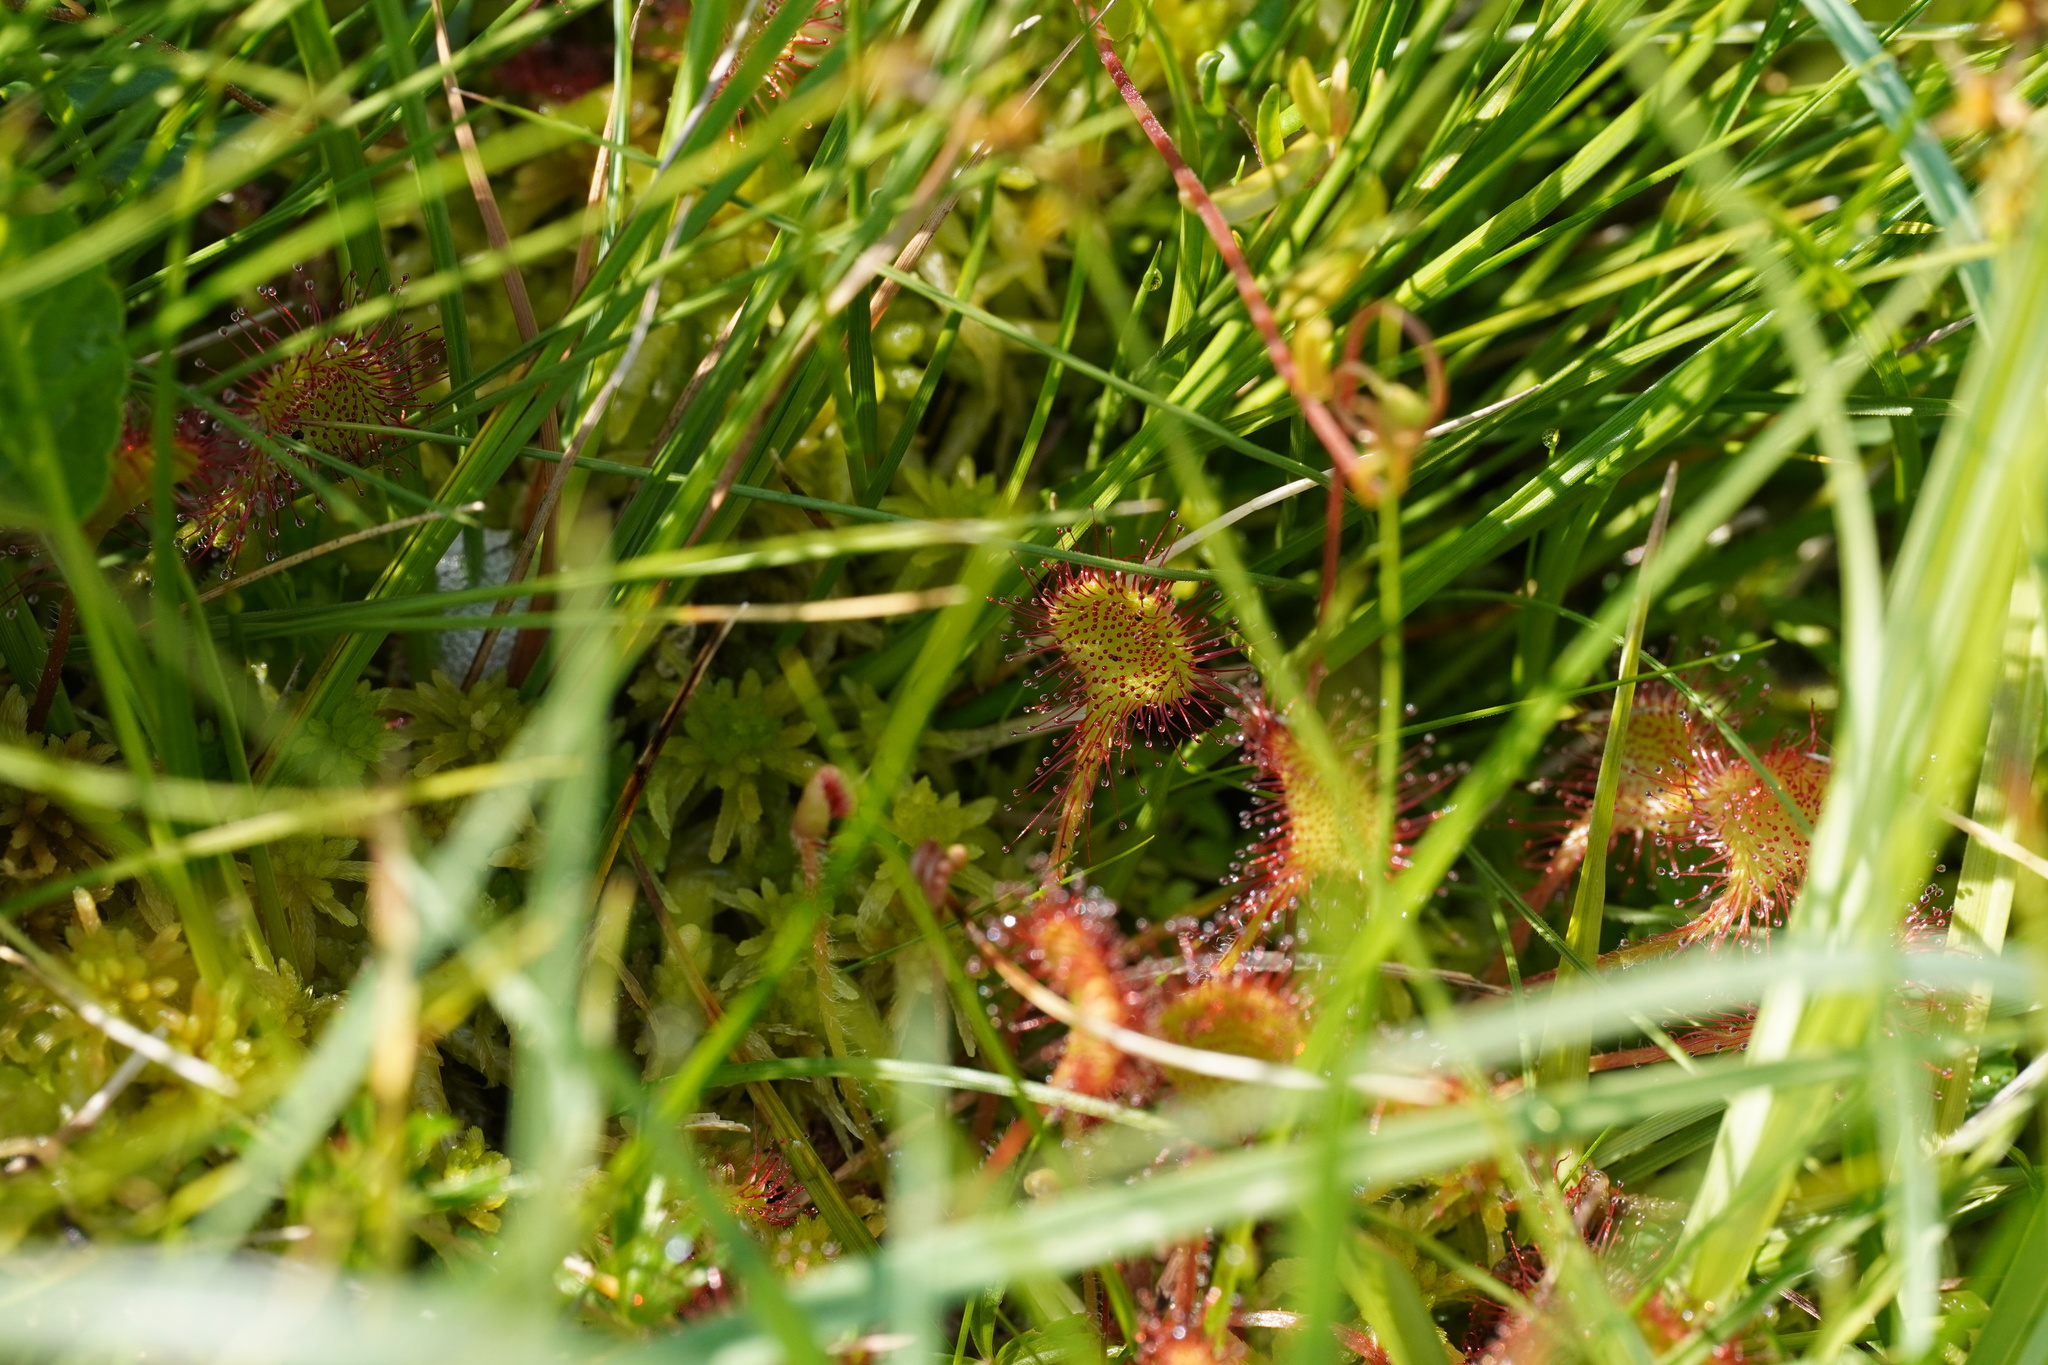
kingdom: Plantae
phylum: Tracheophyta
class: Magnoliopsida
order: Caryophyllales
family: Droseraceae
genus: Drosera
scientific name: Drosera rotundifolia
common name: Round-leaved sundew
